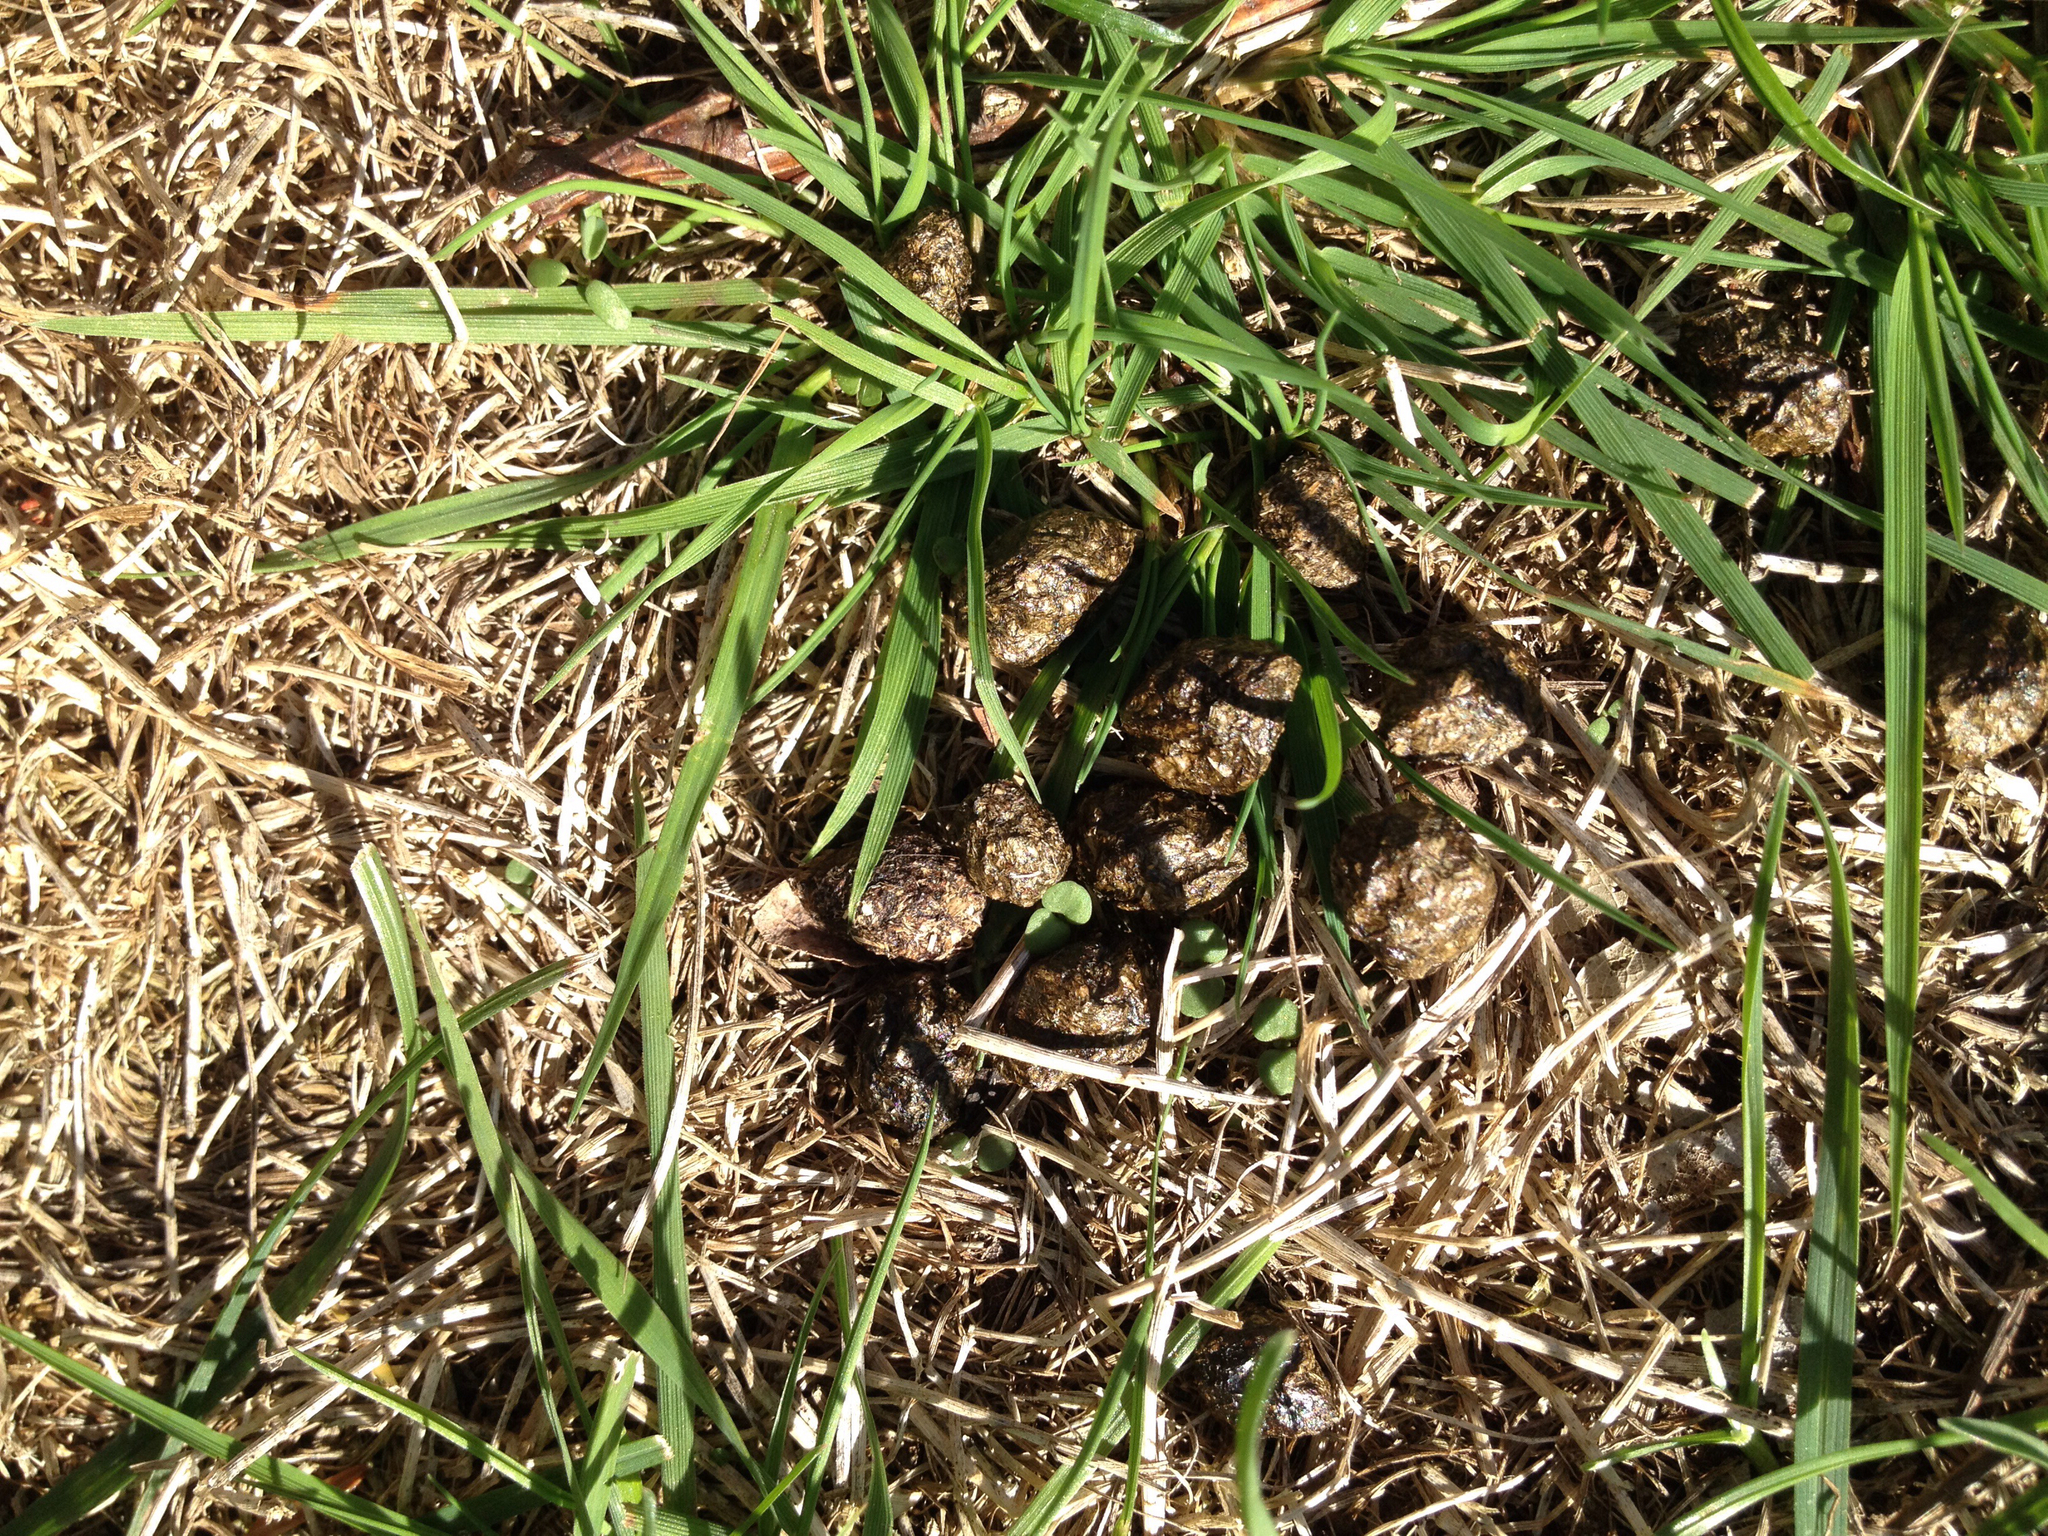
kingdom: Animalia
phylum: Chordata
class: Mammalia
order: Lagomorpha
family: Leporidae
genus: Sylvilagus
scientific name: Sylvilagus floridanus
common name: Eastern cottontail
